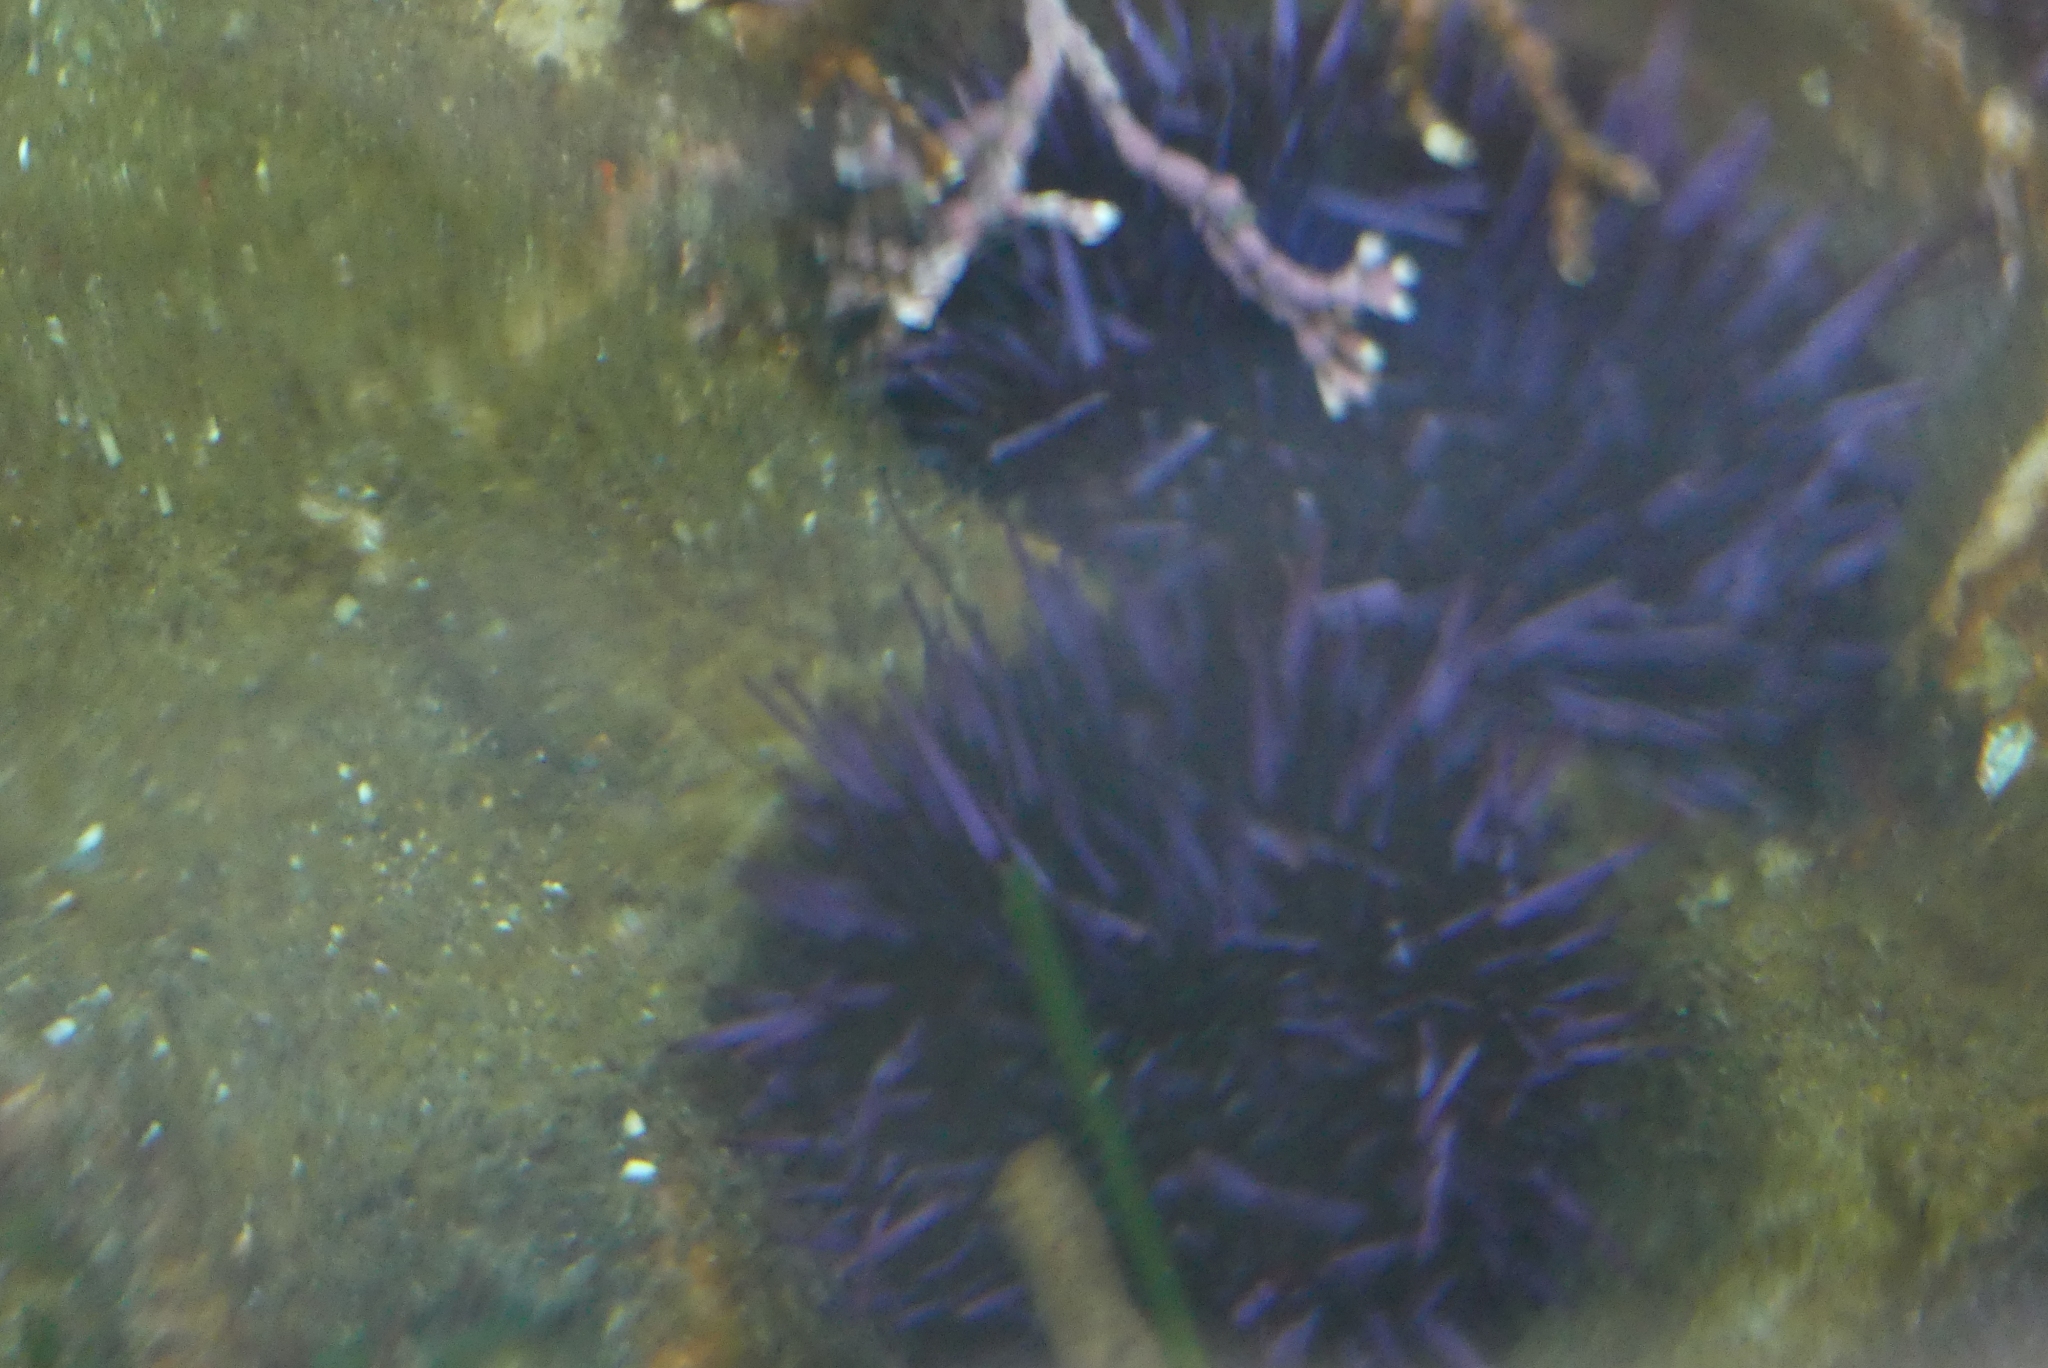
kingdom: Animalia
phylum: Echinodermata
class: Echinoidea
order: Camarodonta
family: Strongylocentrotidae
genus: Strongylocentrotus
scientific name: Strongylocentrotus purpuratus
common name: Purple sea urchin
